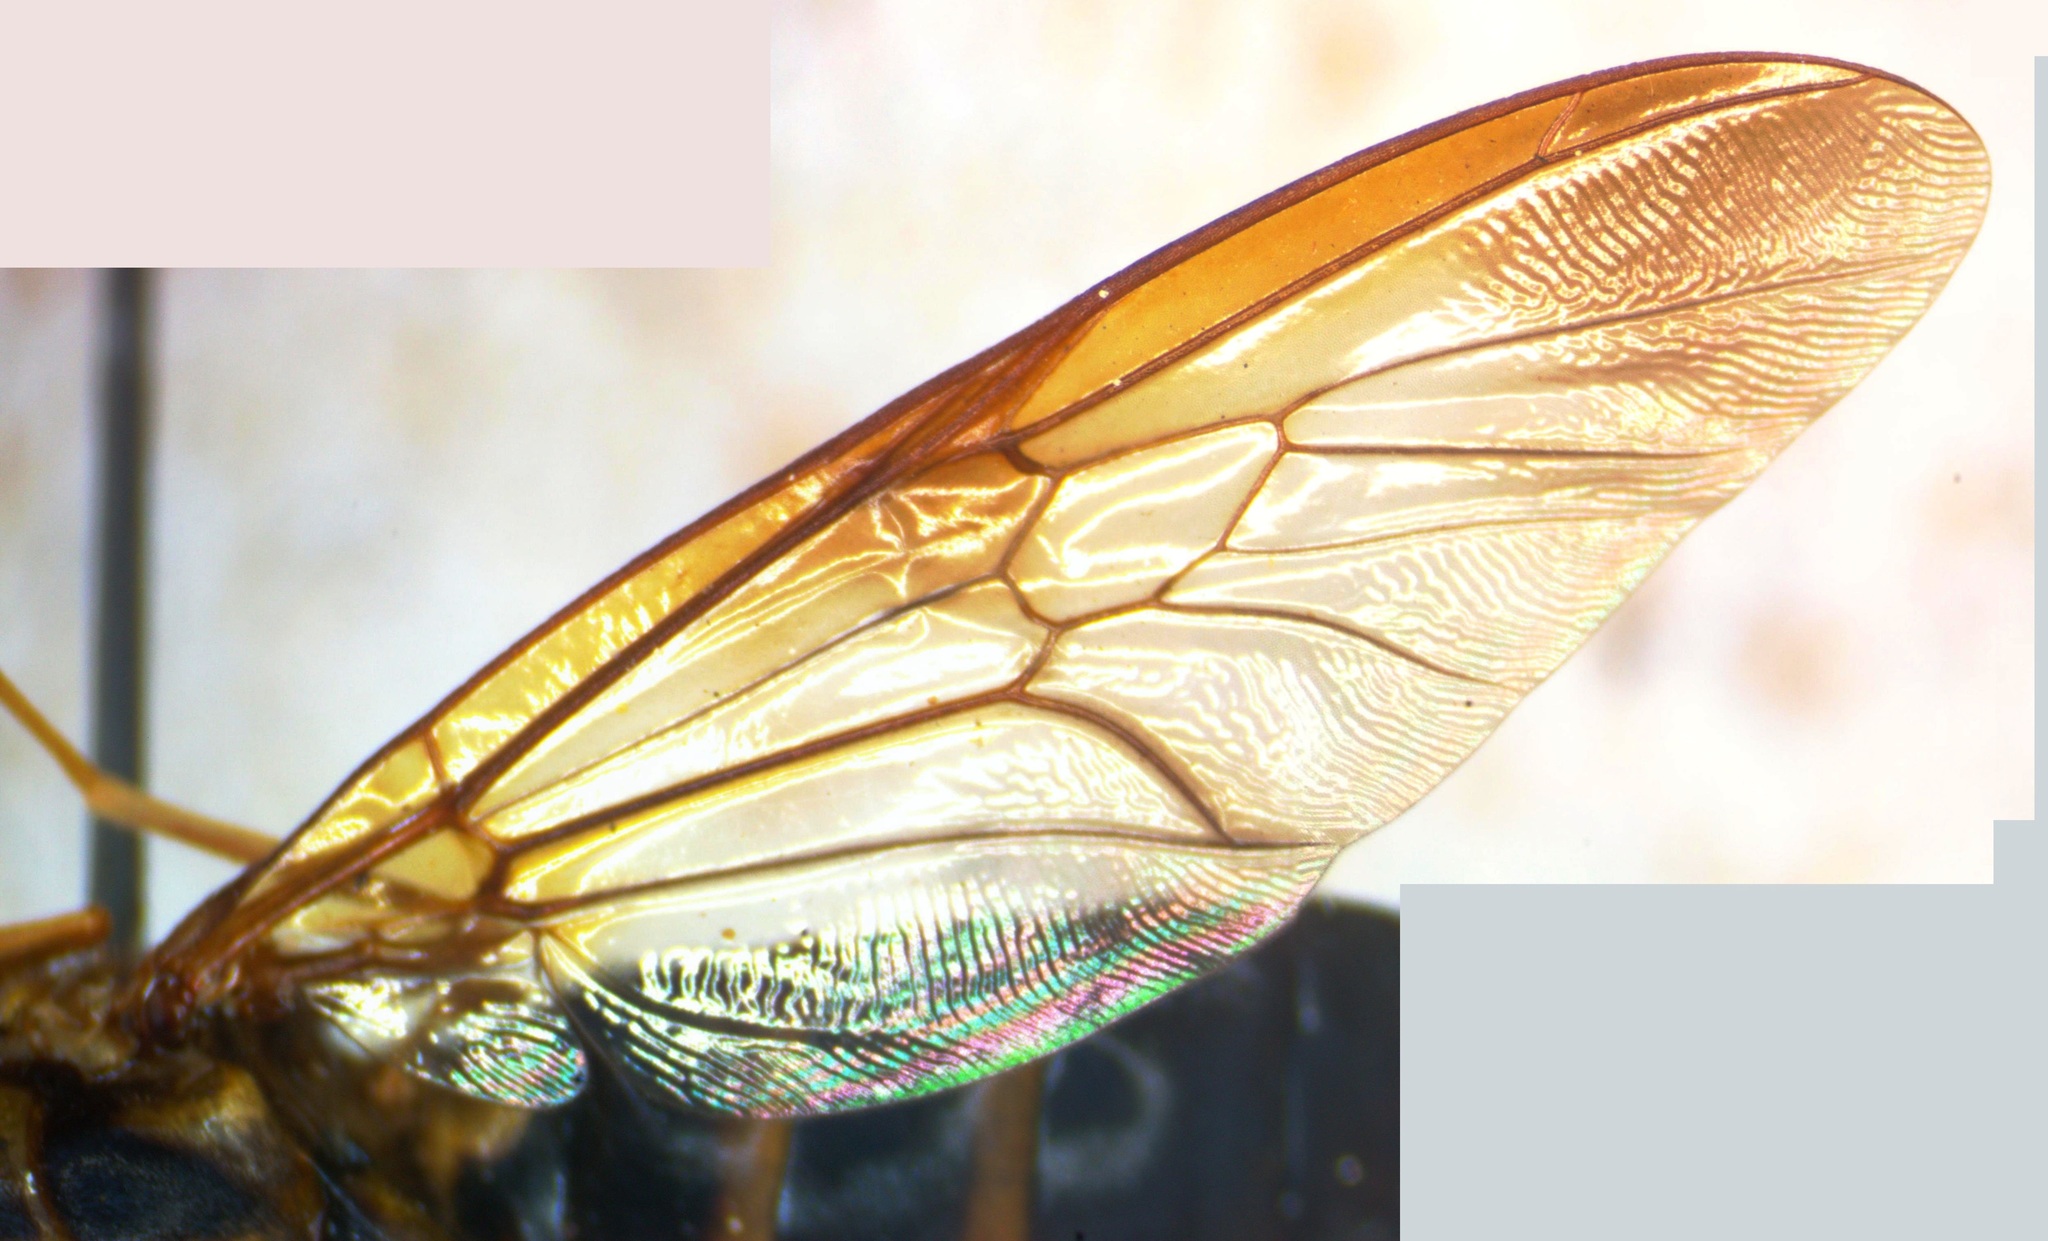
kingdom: Animalia
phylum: Arthropoda
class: Insecta
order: Diptera
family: Stratiomyidae
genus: Chrysochlorina
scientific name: Chrysochlorina pulchra
